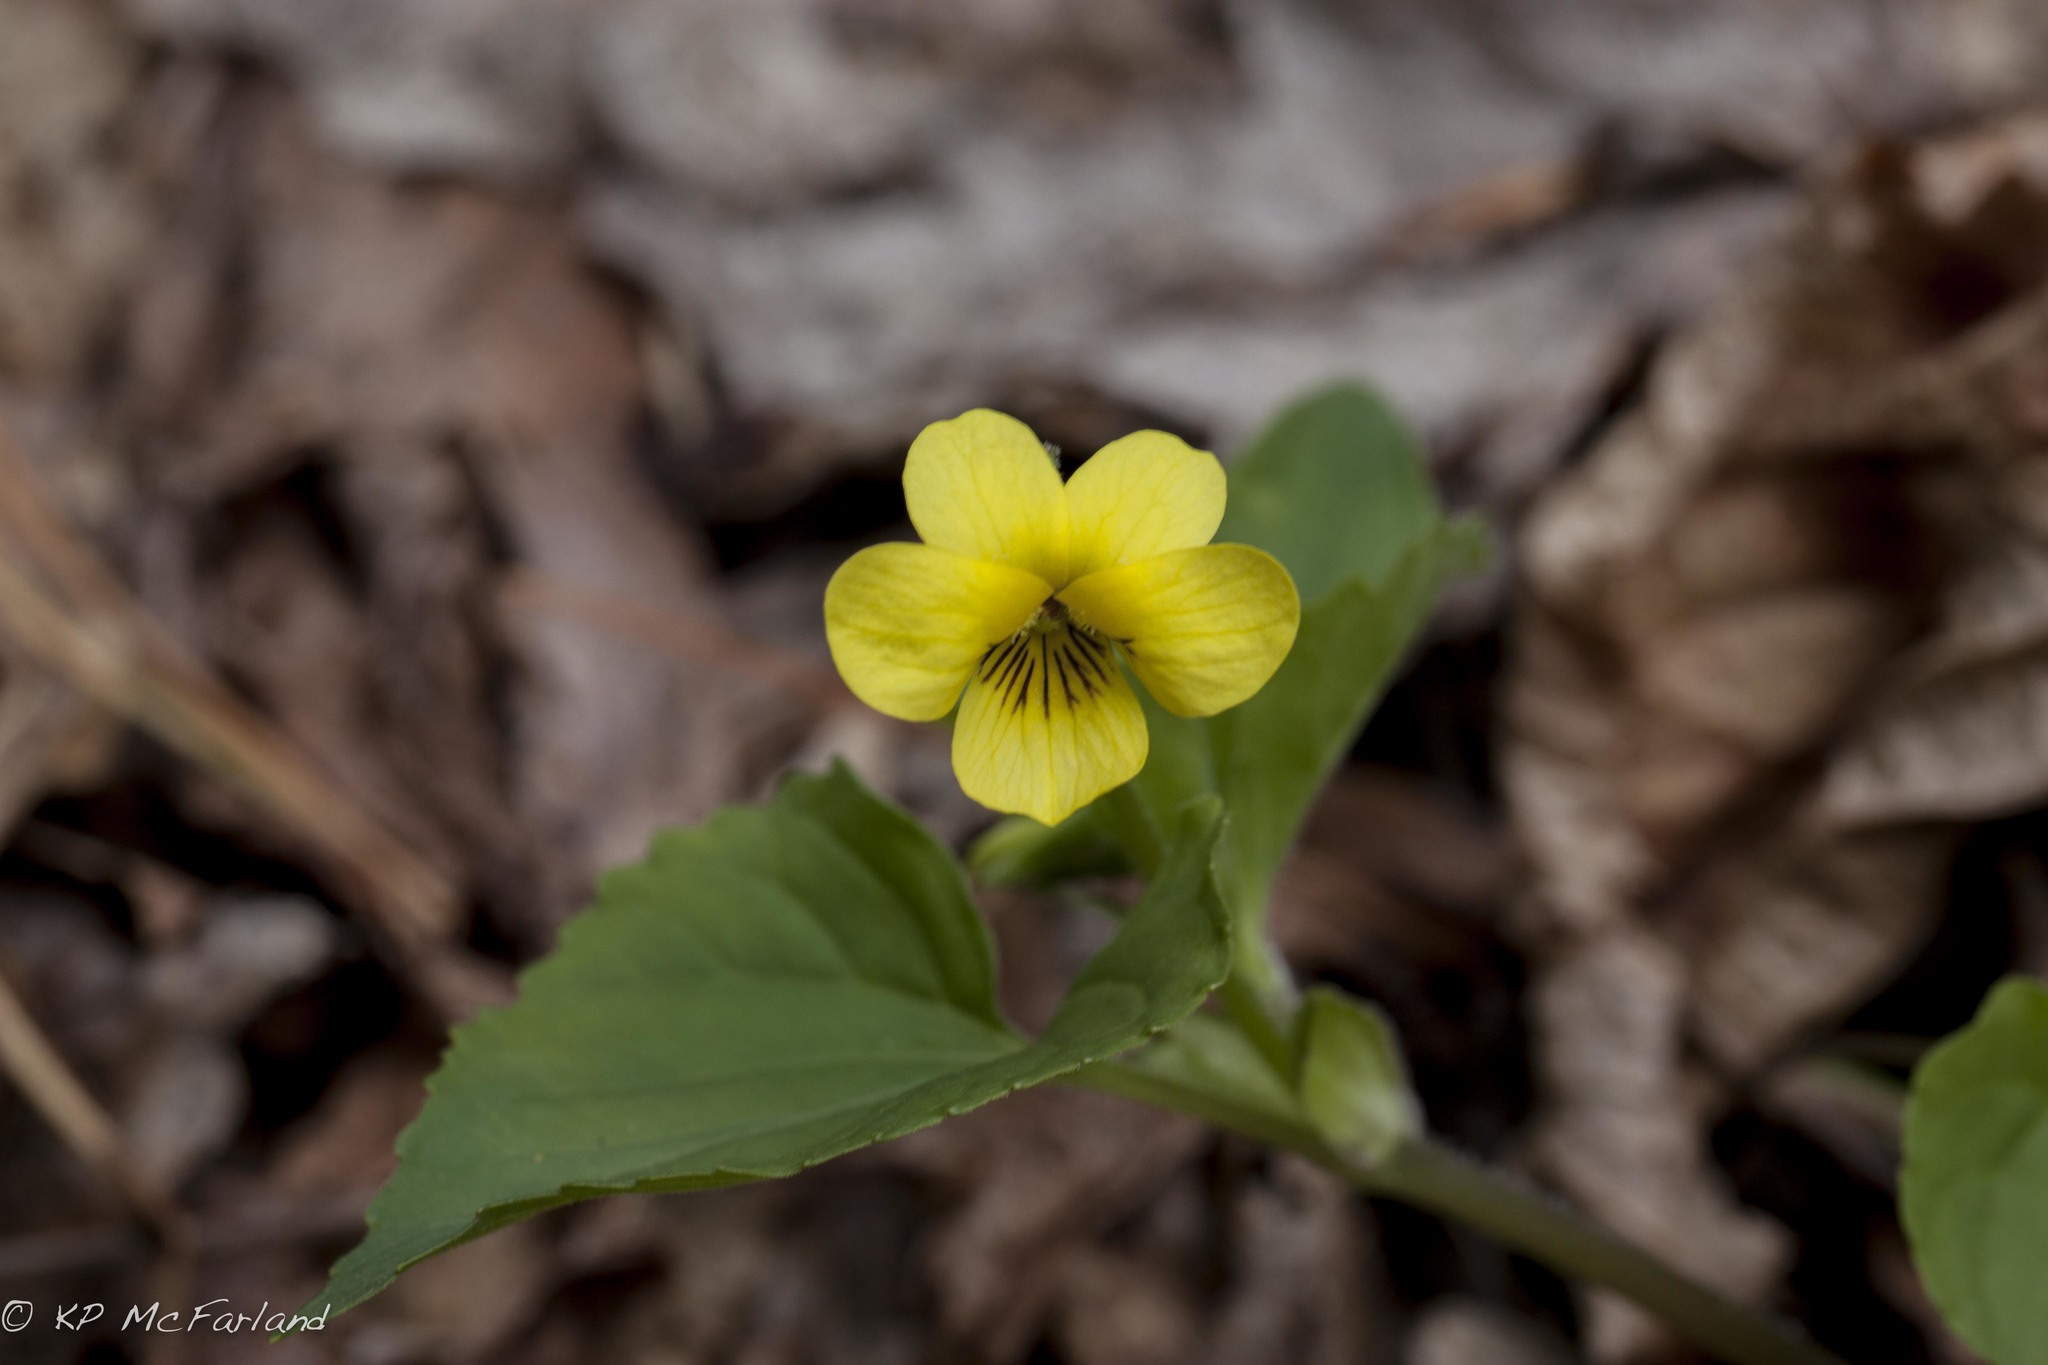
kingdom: Plantae
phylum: Tracheophyta
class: Magnoliopsida
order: Malpighiales
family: Violaceae
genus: Viola
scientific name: Viola eriocarpa
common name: Smooth yellow violet
